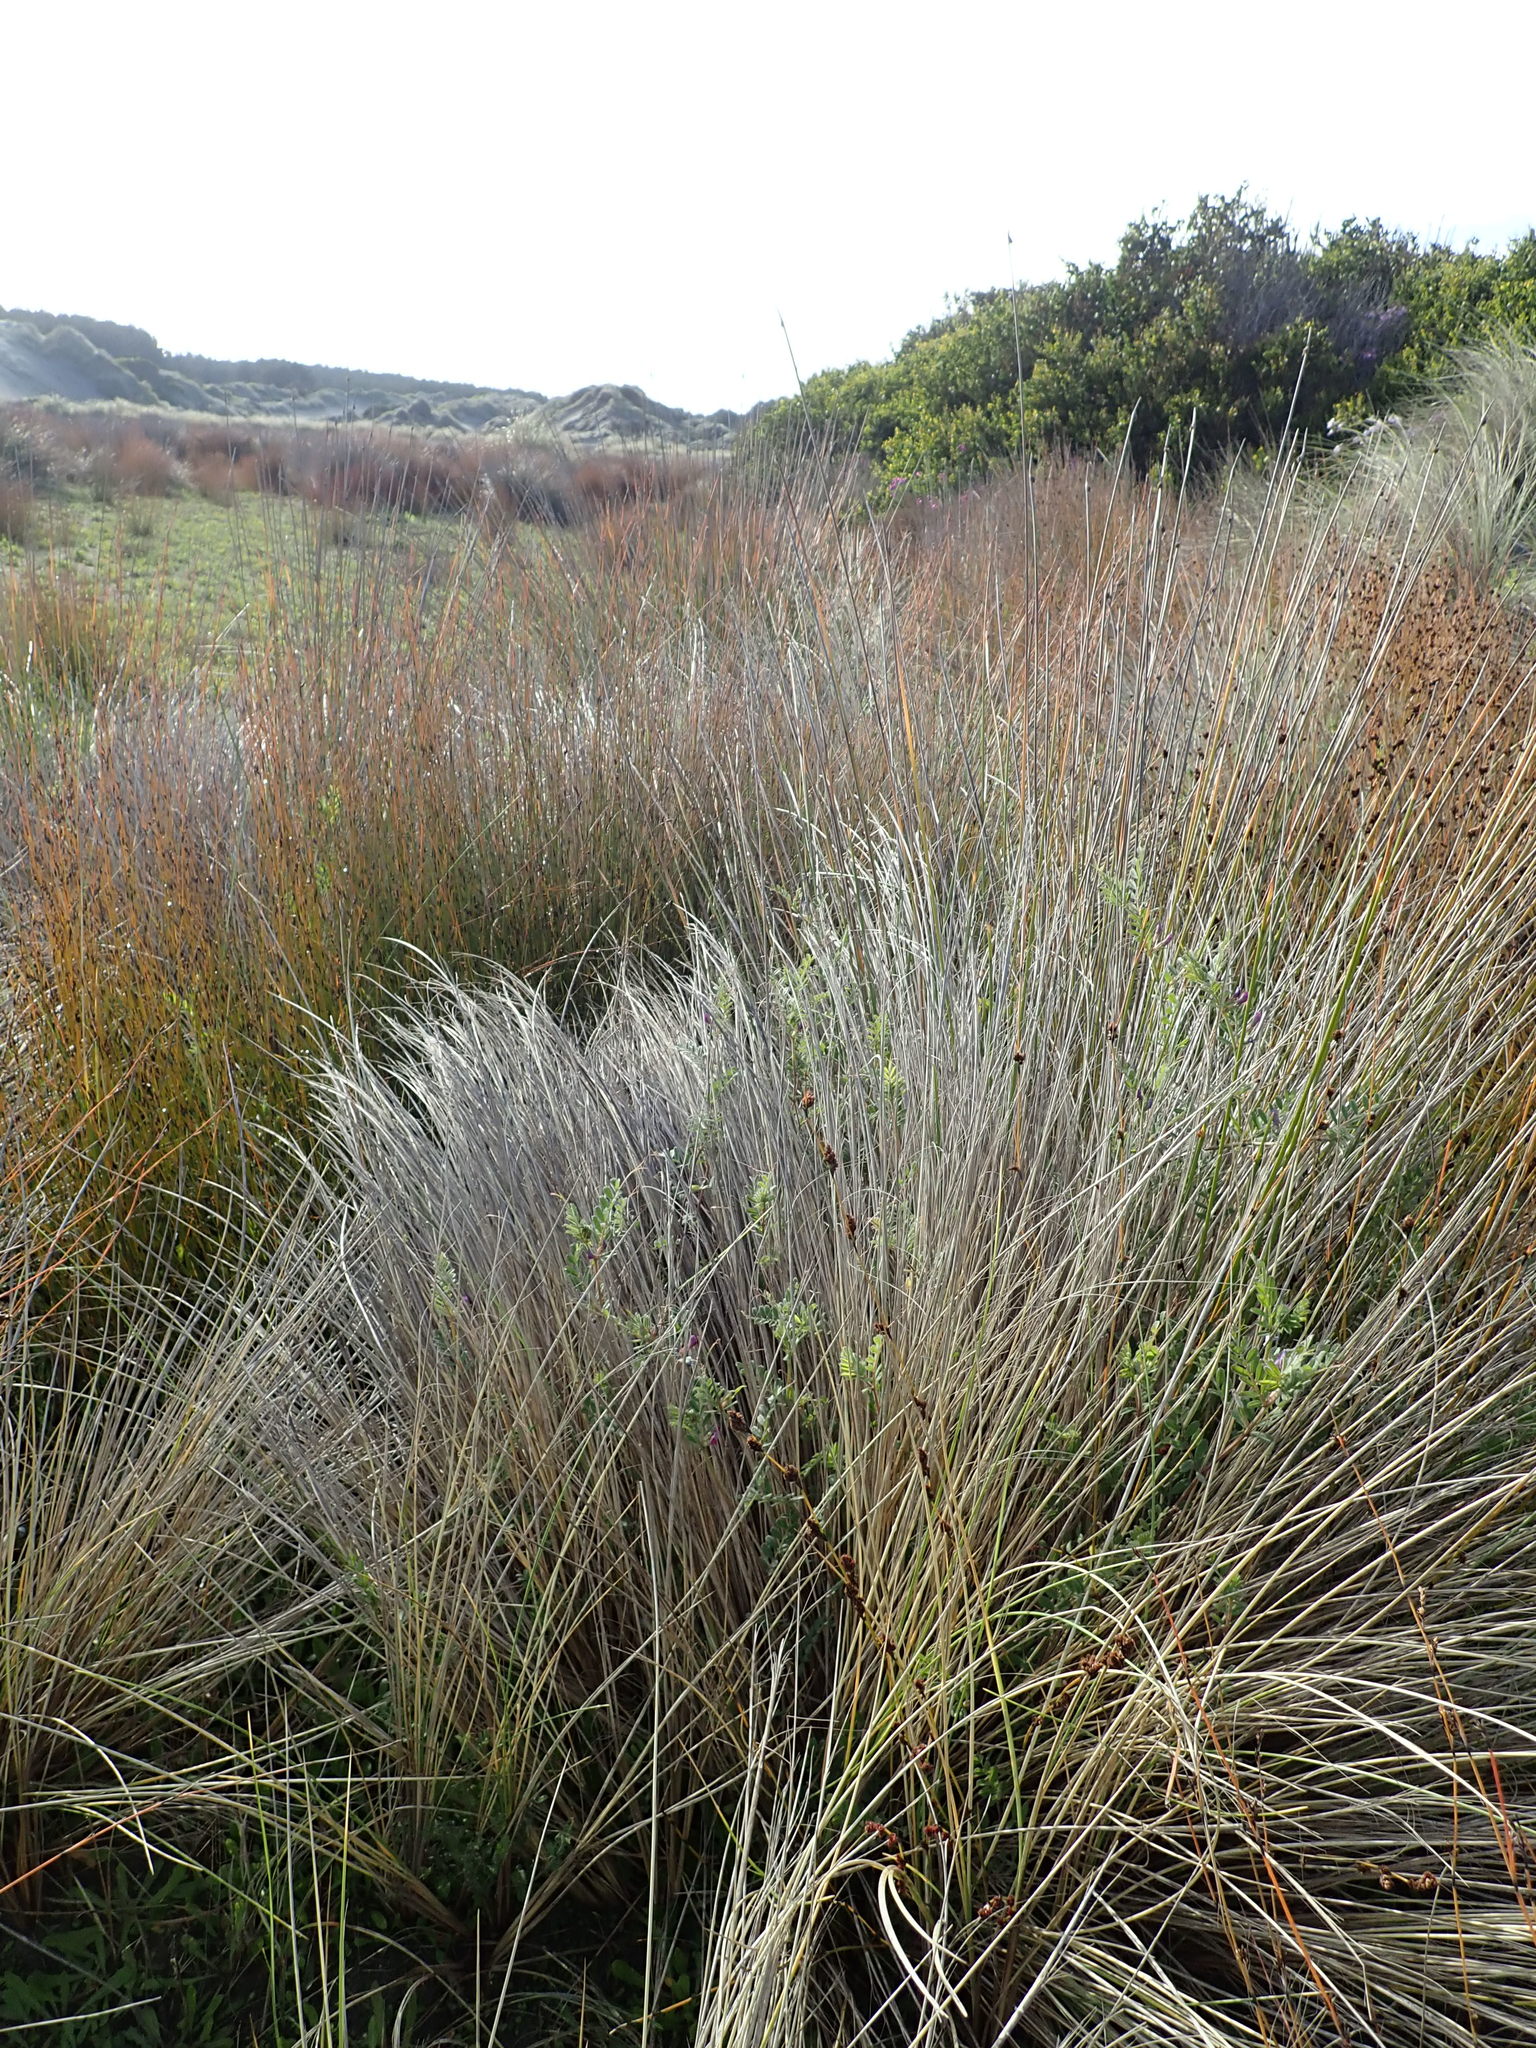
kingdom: Plantae
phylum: Tracheophyta
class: Magnoliopsida
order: Fabales
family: Fabaceae
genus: Vicia
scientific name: Vicia sativa
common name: Garden vetch
